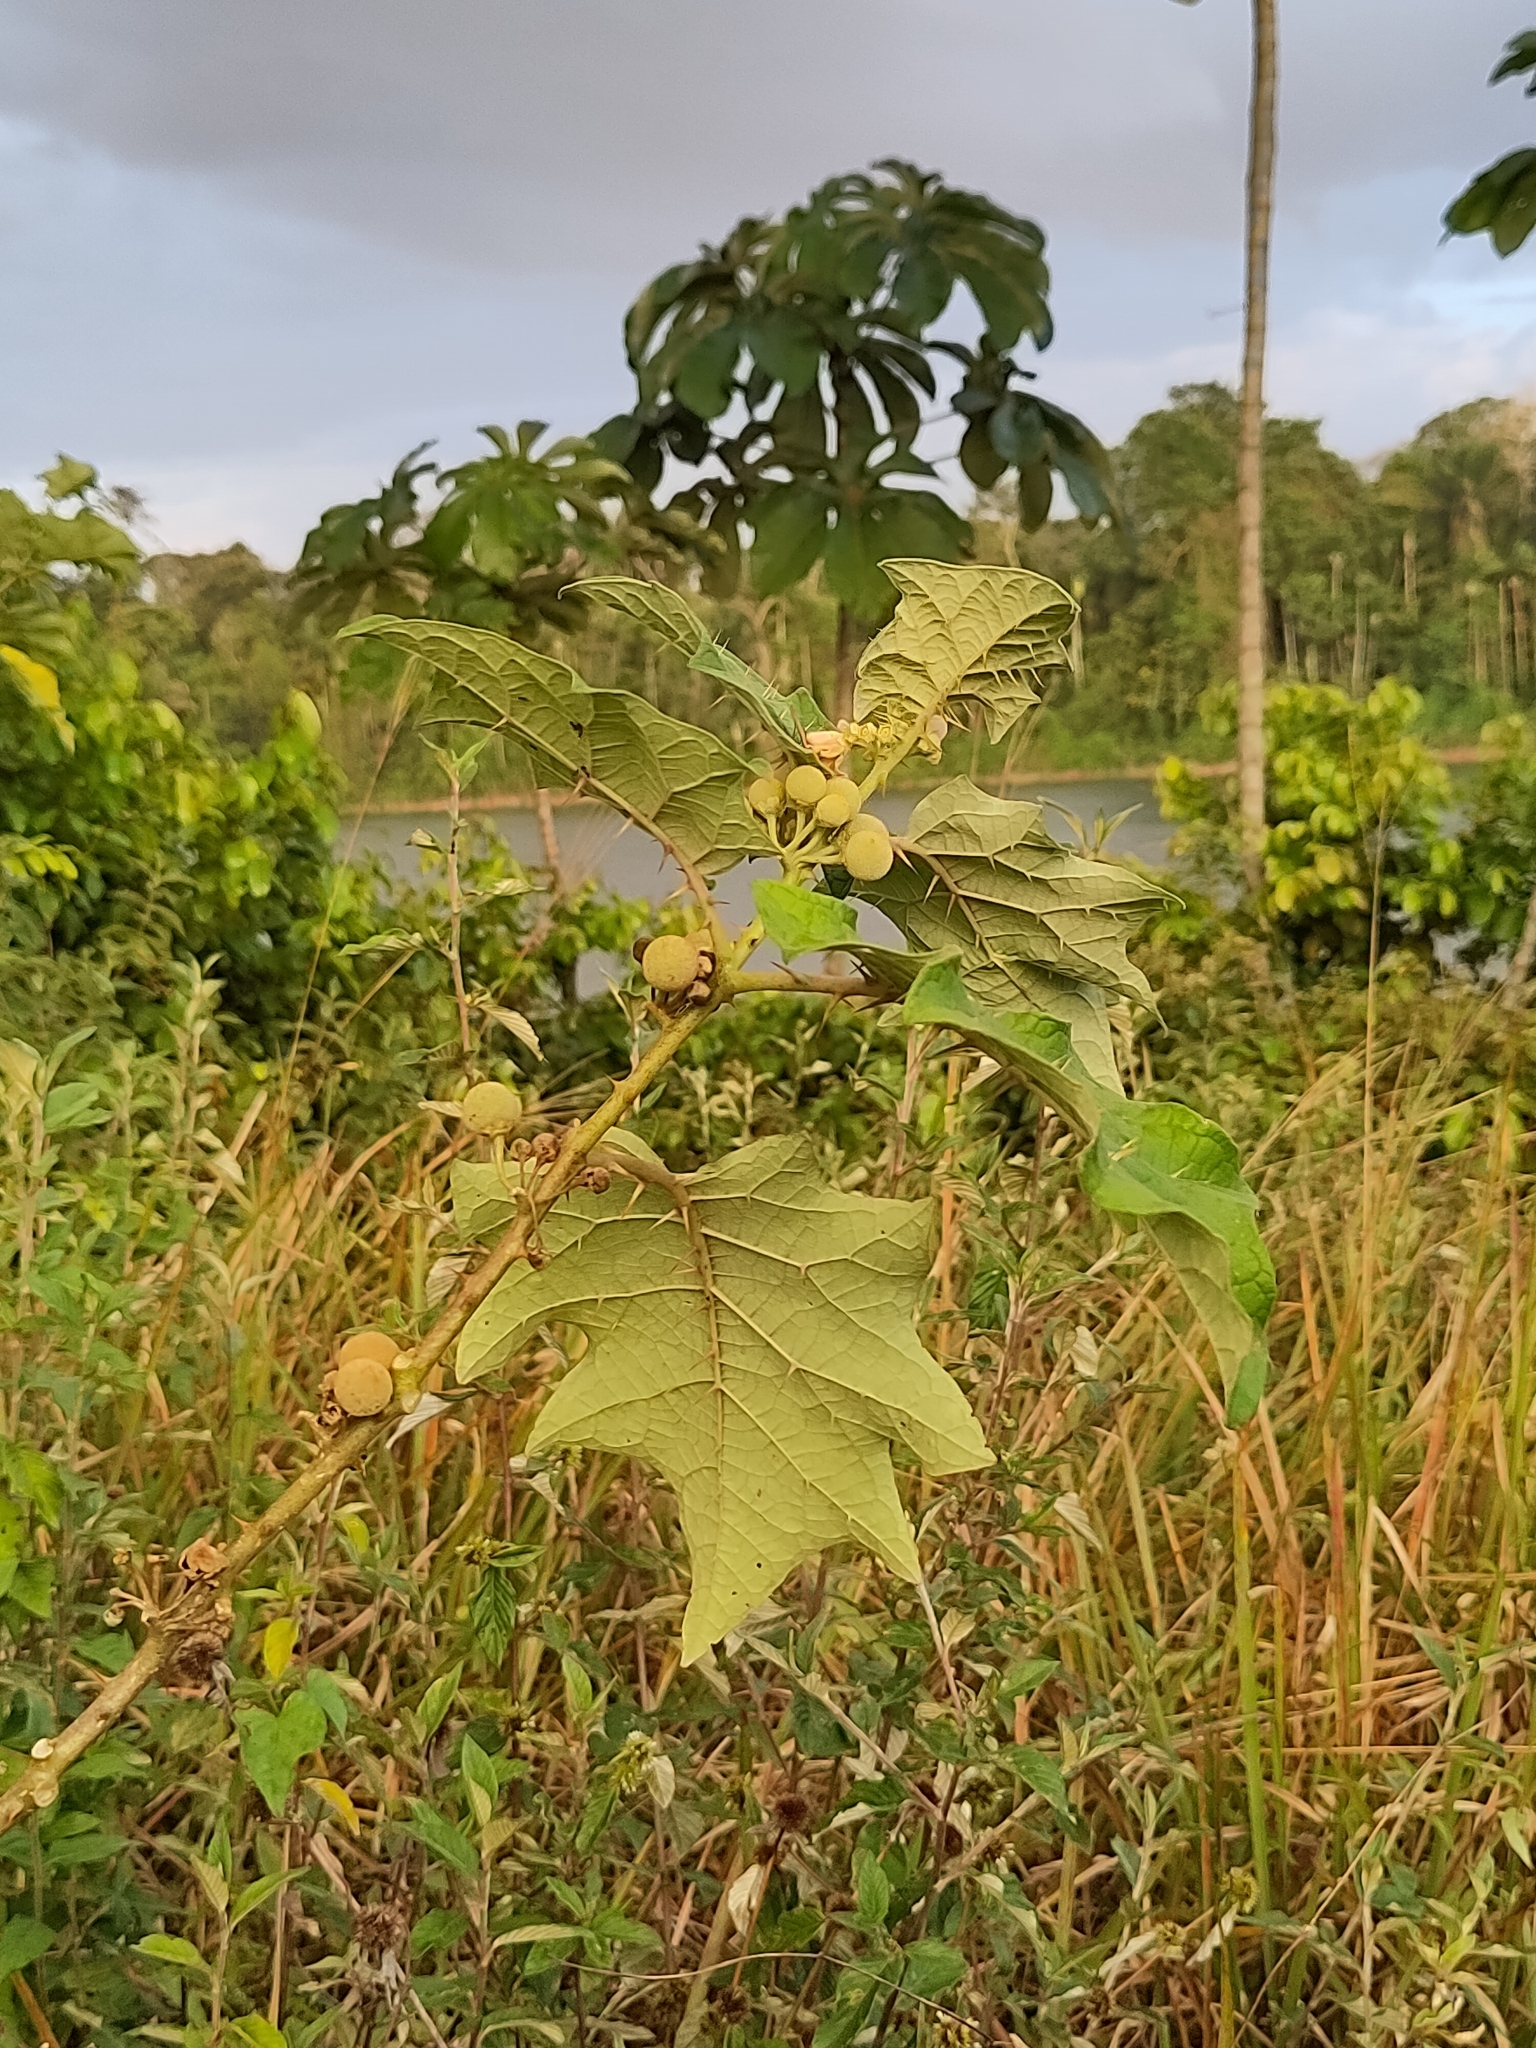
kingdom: Plantae
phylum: Tracheophyta
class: Magnoliopsida
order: Solanales
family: Solanaceae
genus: Solanum
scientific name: Solanum
